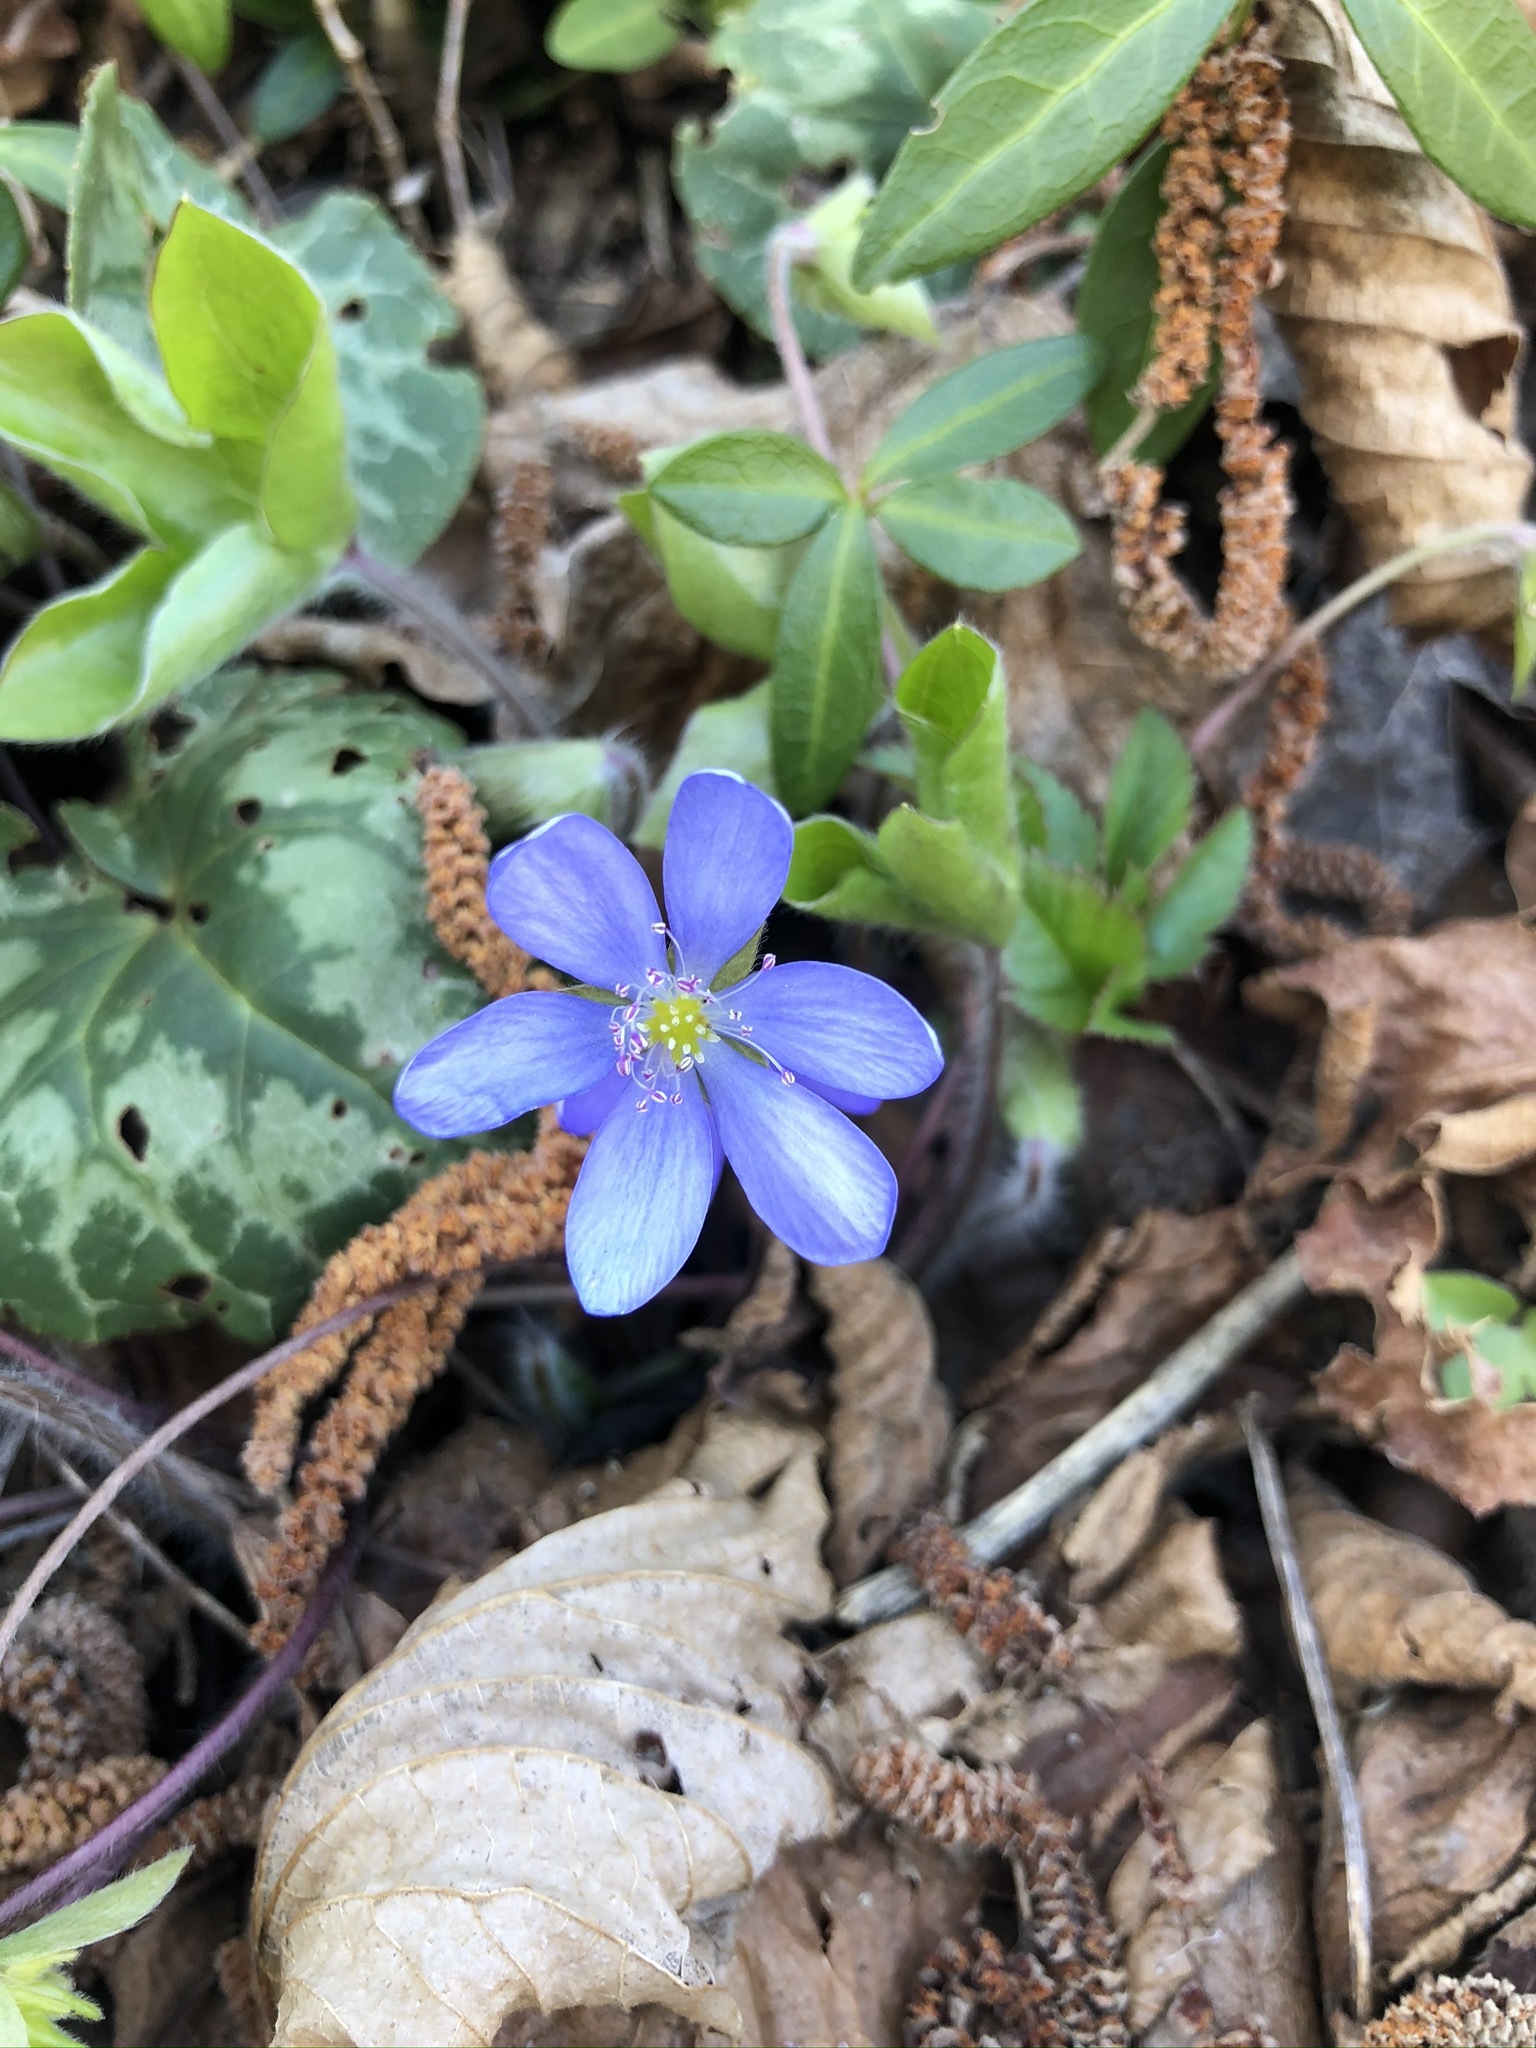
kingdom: Plantae
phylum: Tracheophyta
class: Magnoliopsida
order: Ranunculales
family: Ranunculaceae
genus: Hepatica
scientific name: Hepatica nobilis
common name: Liverleaf
